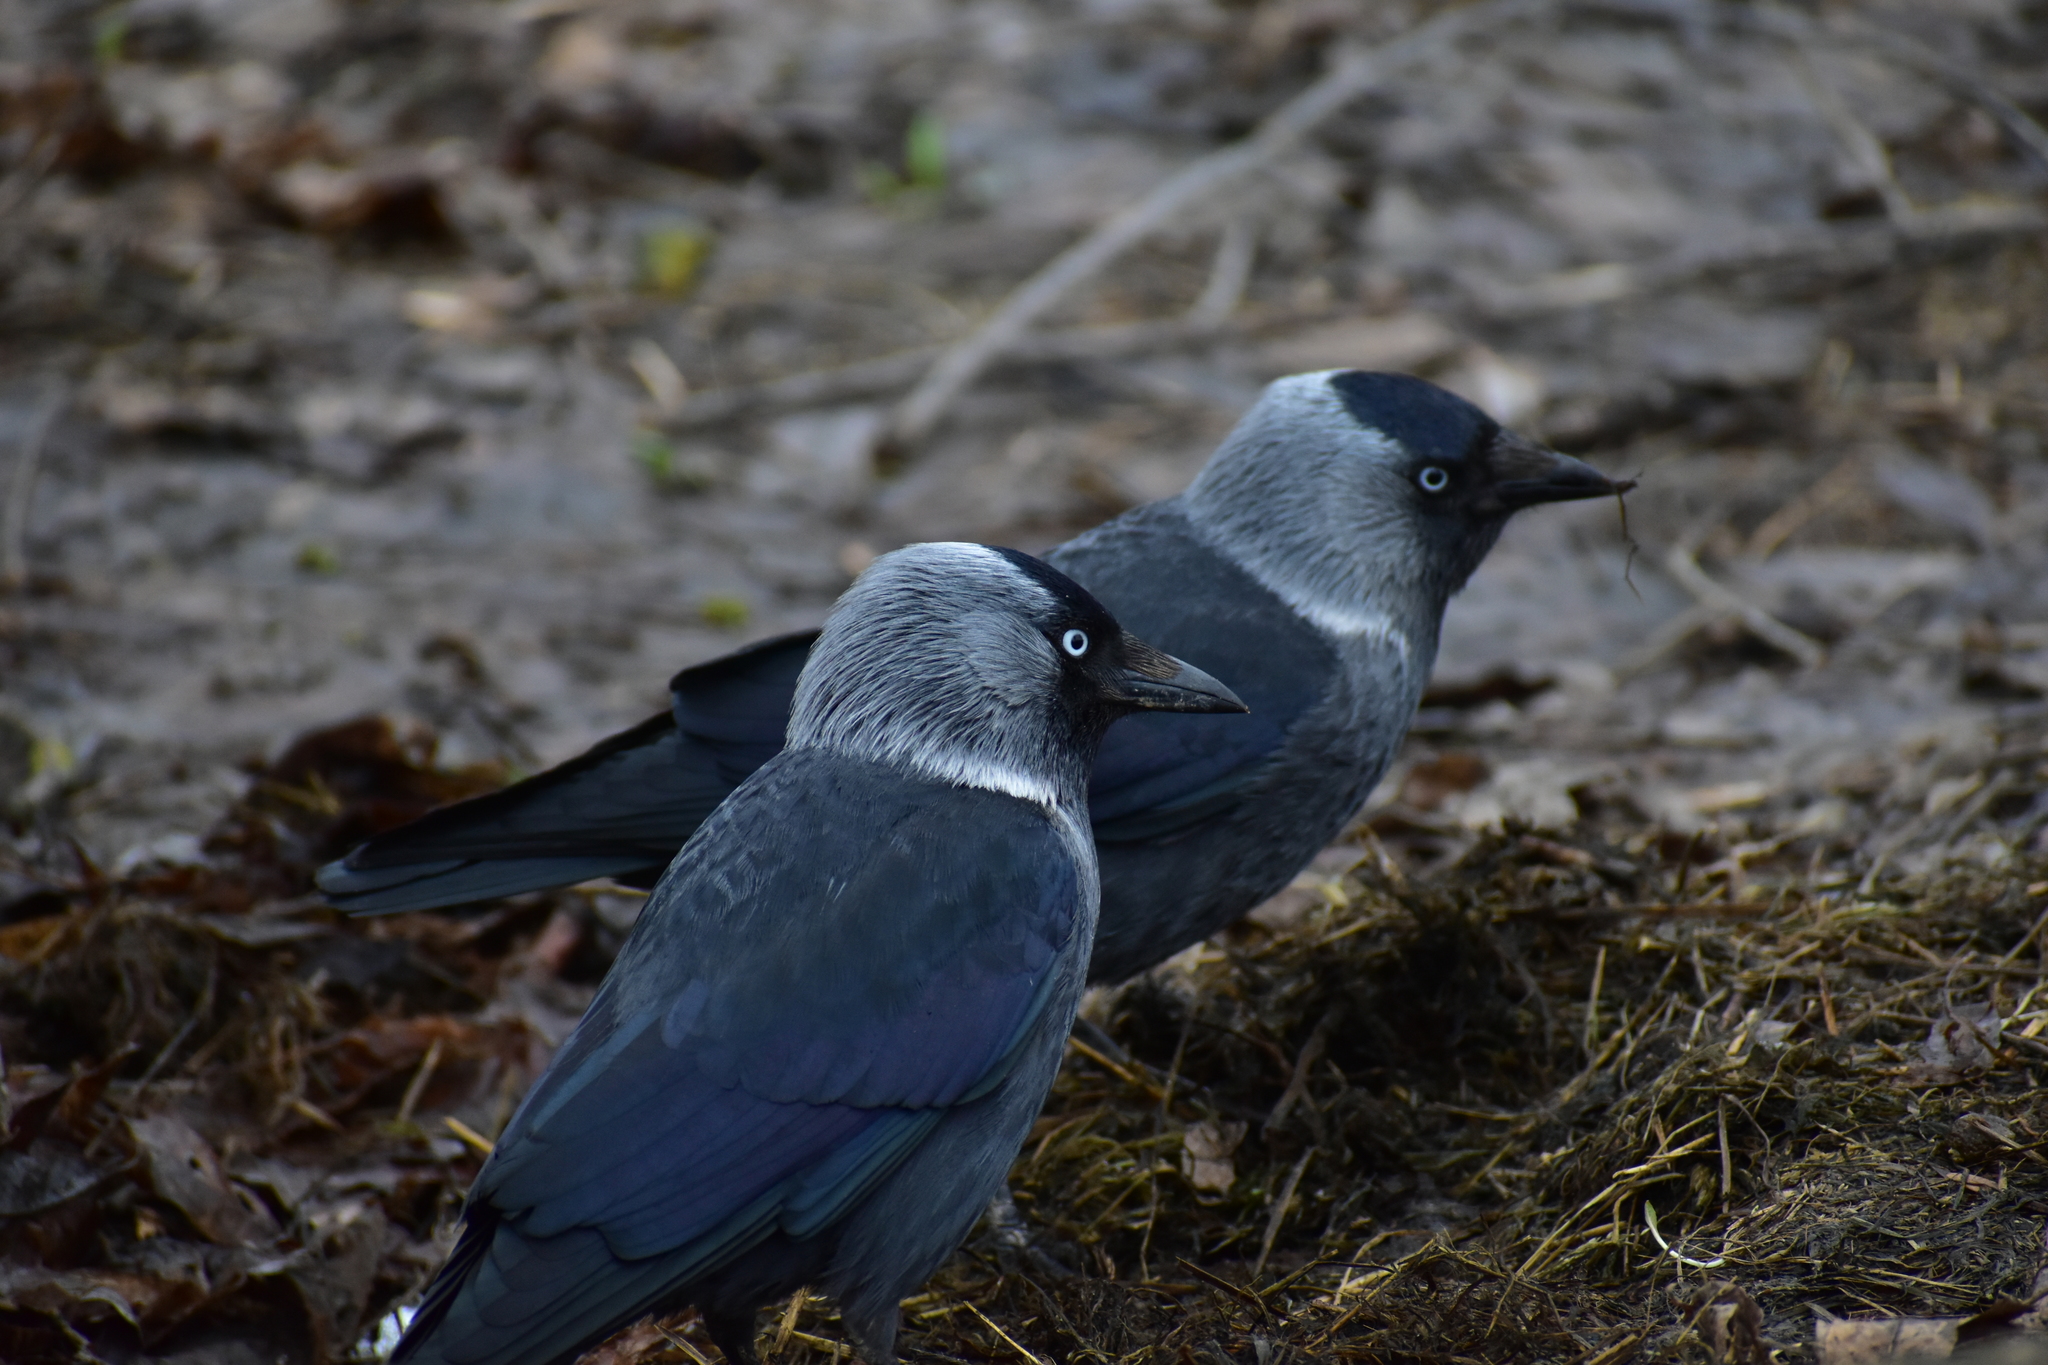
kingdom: Animalia
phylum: Chordata
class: Aves
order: Passeriformes
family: Corvidae
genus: Coloeus
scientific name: Coloeus monedula
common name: Western jackdaw
